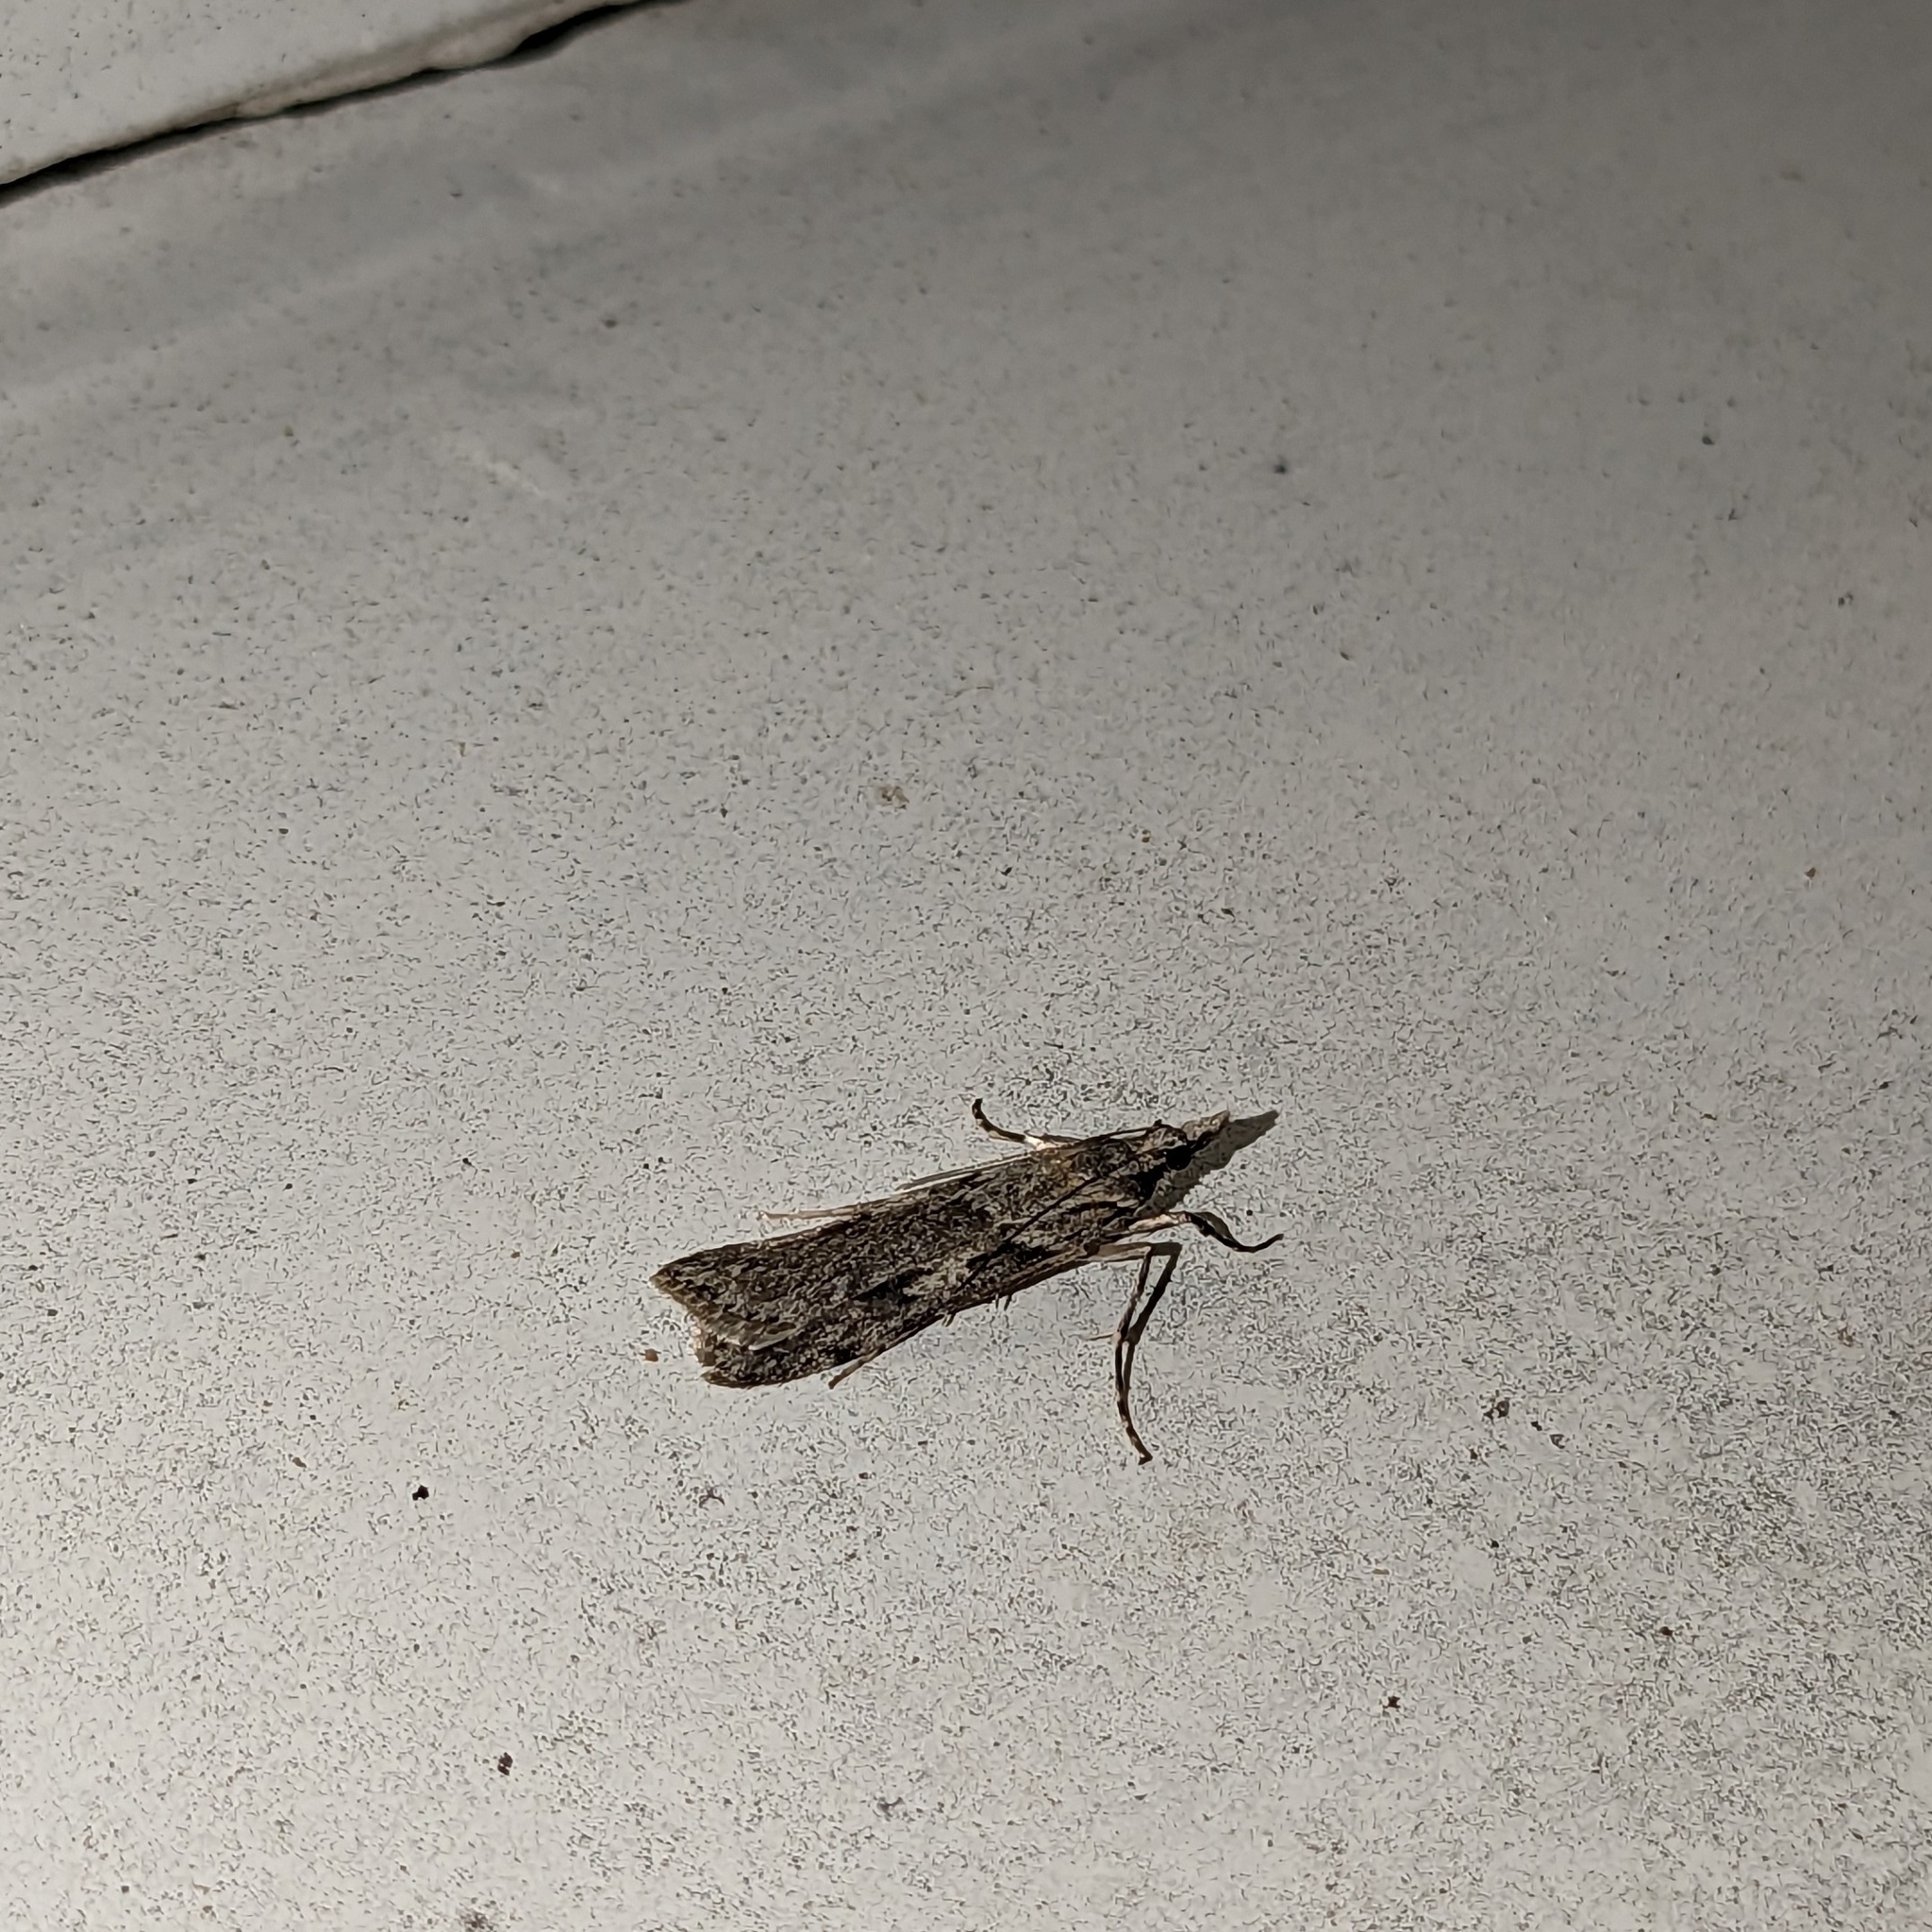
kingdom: Animalia
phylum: Arthropoda
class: Insecta
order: Lepidoptera
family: Crambidae
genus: Scoparia
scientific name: Scoparia halopis
